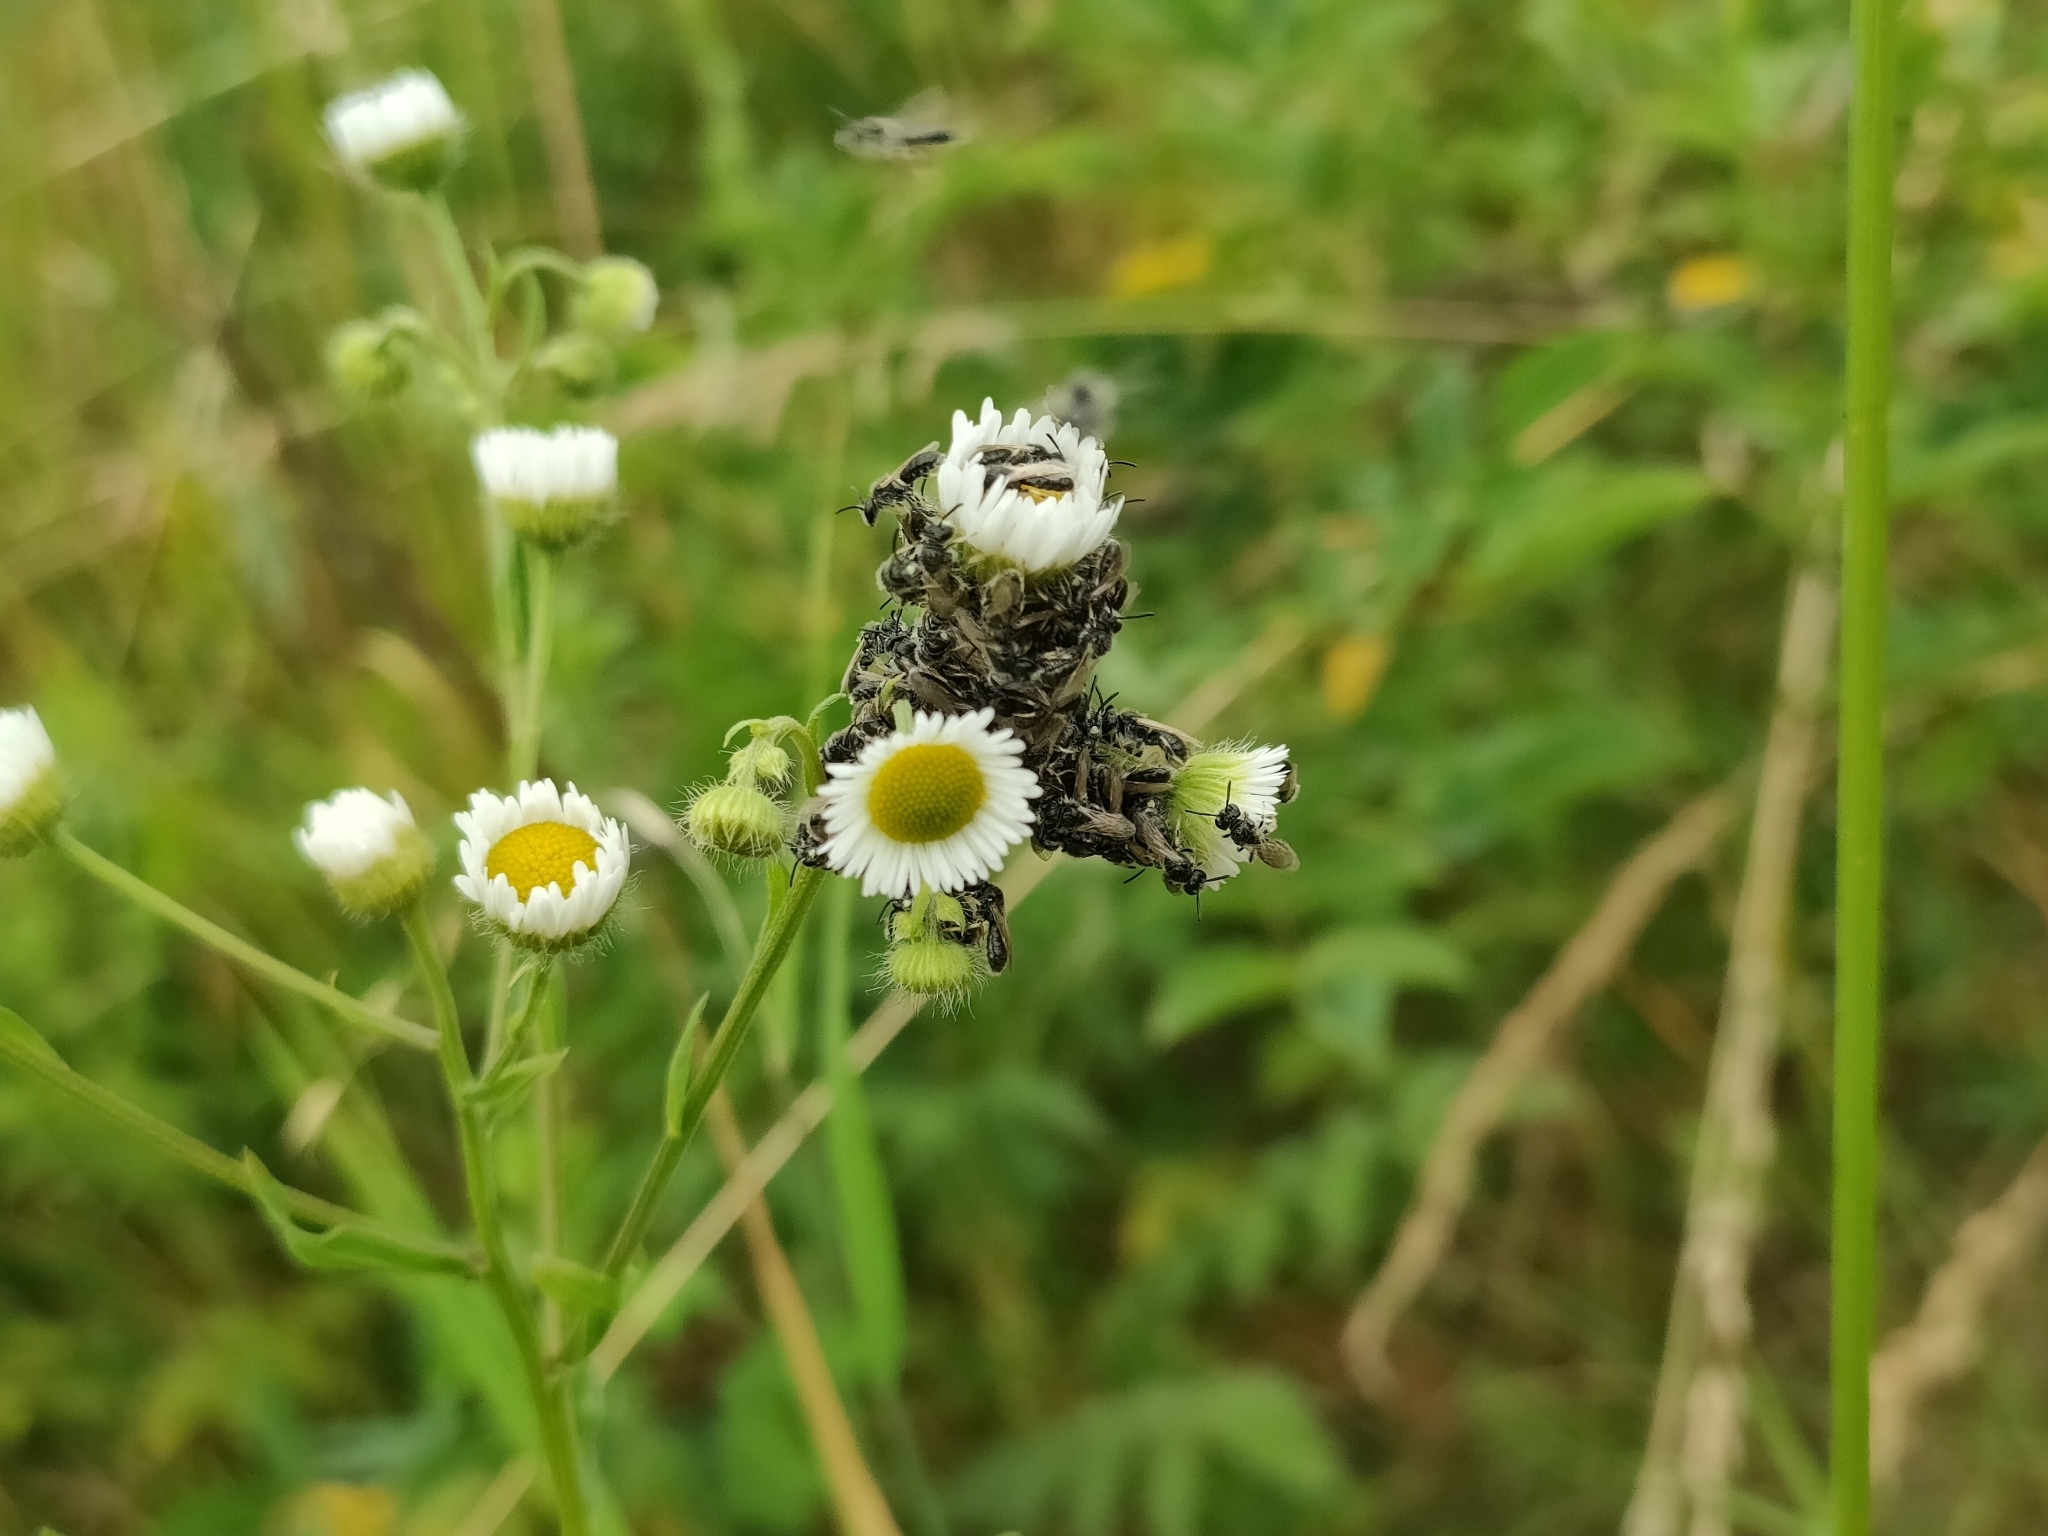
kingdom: Animalia
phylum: Arthropoda
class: Insecta
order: Hymenoptera
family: Andrenidae
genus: Panurginus
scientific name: Panurginus labiatus
